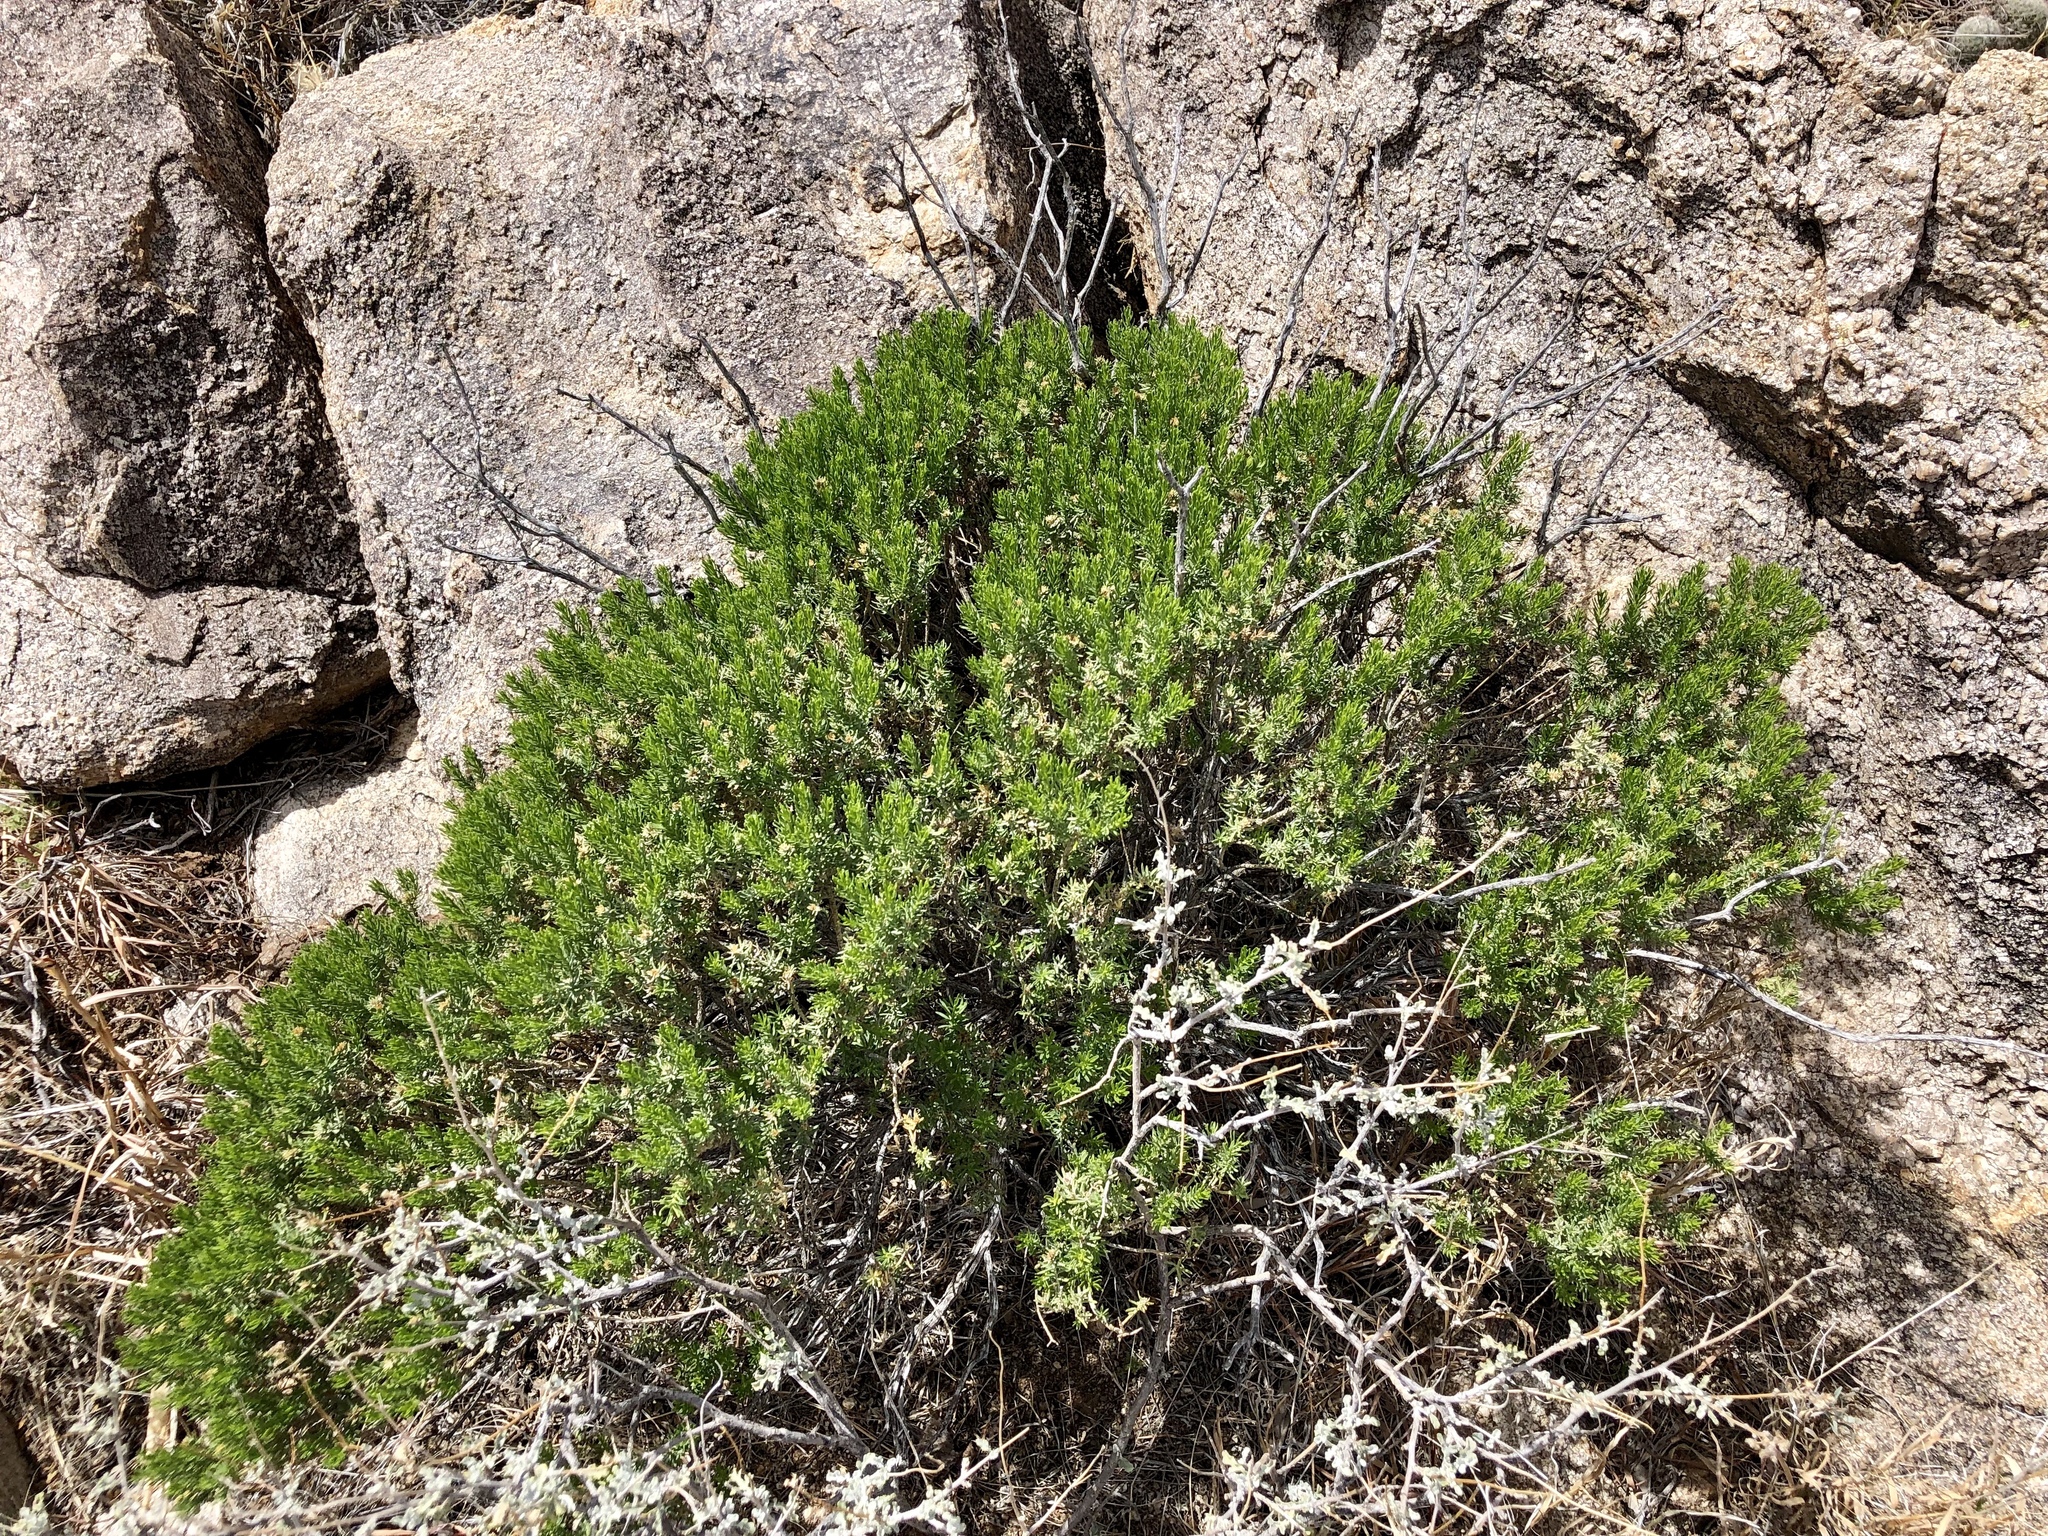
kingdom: Plantae
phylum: Tracheophyta
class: Magnoliopsida
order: Asterales
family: Asteraceae
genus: Ericameria
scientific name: Ericameria laricifolia
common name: Turpentine-bush
